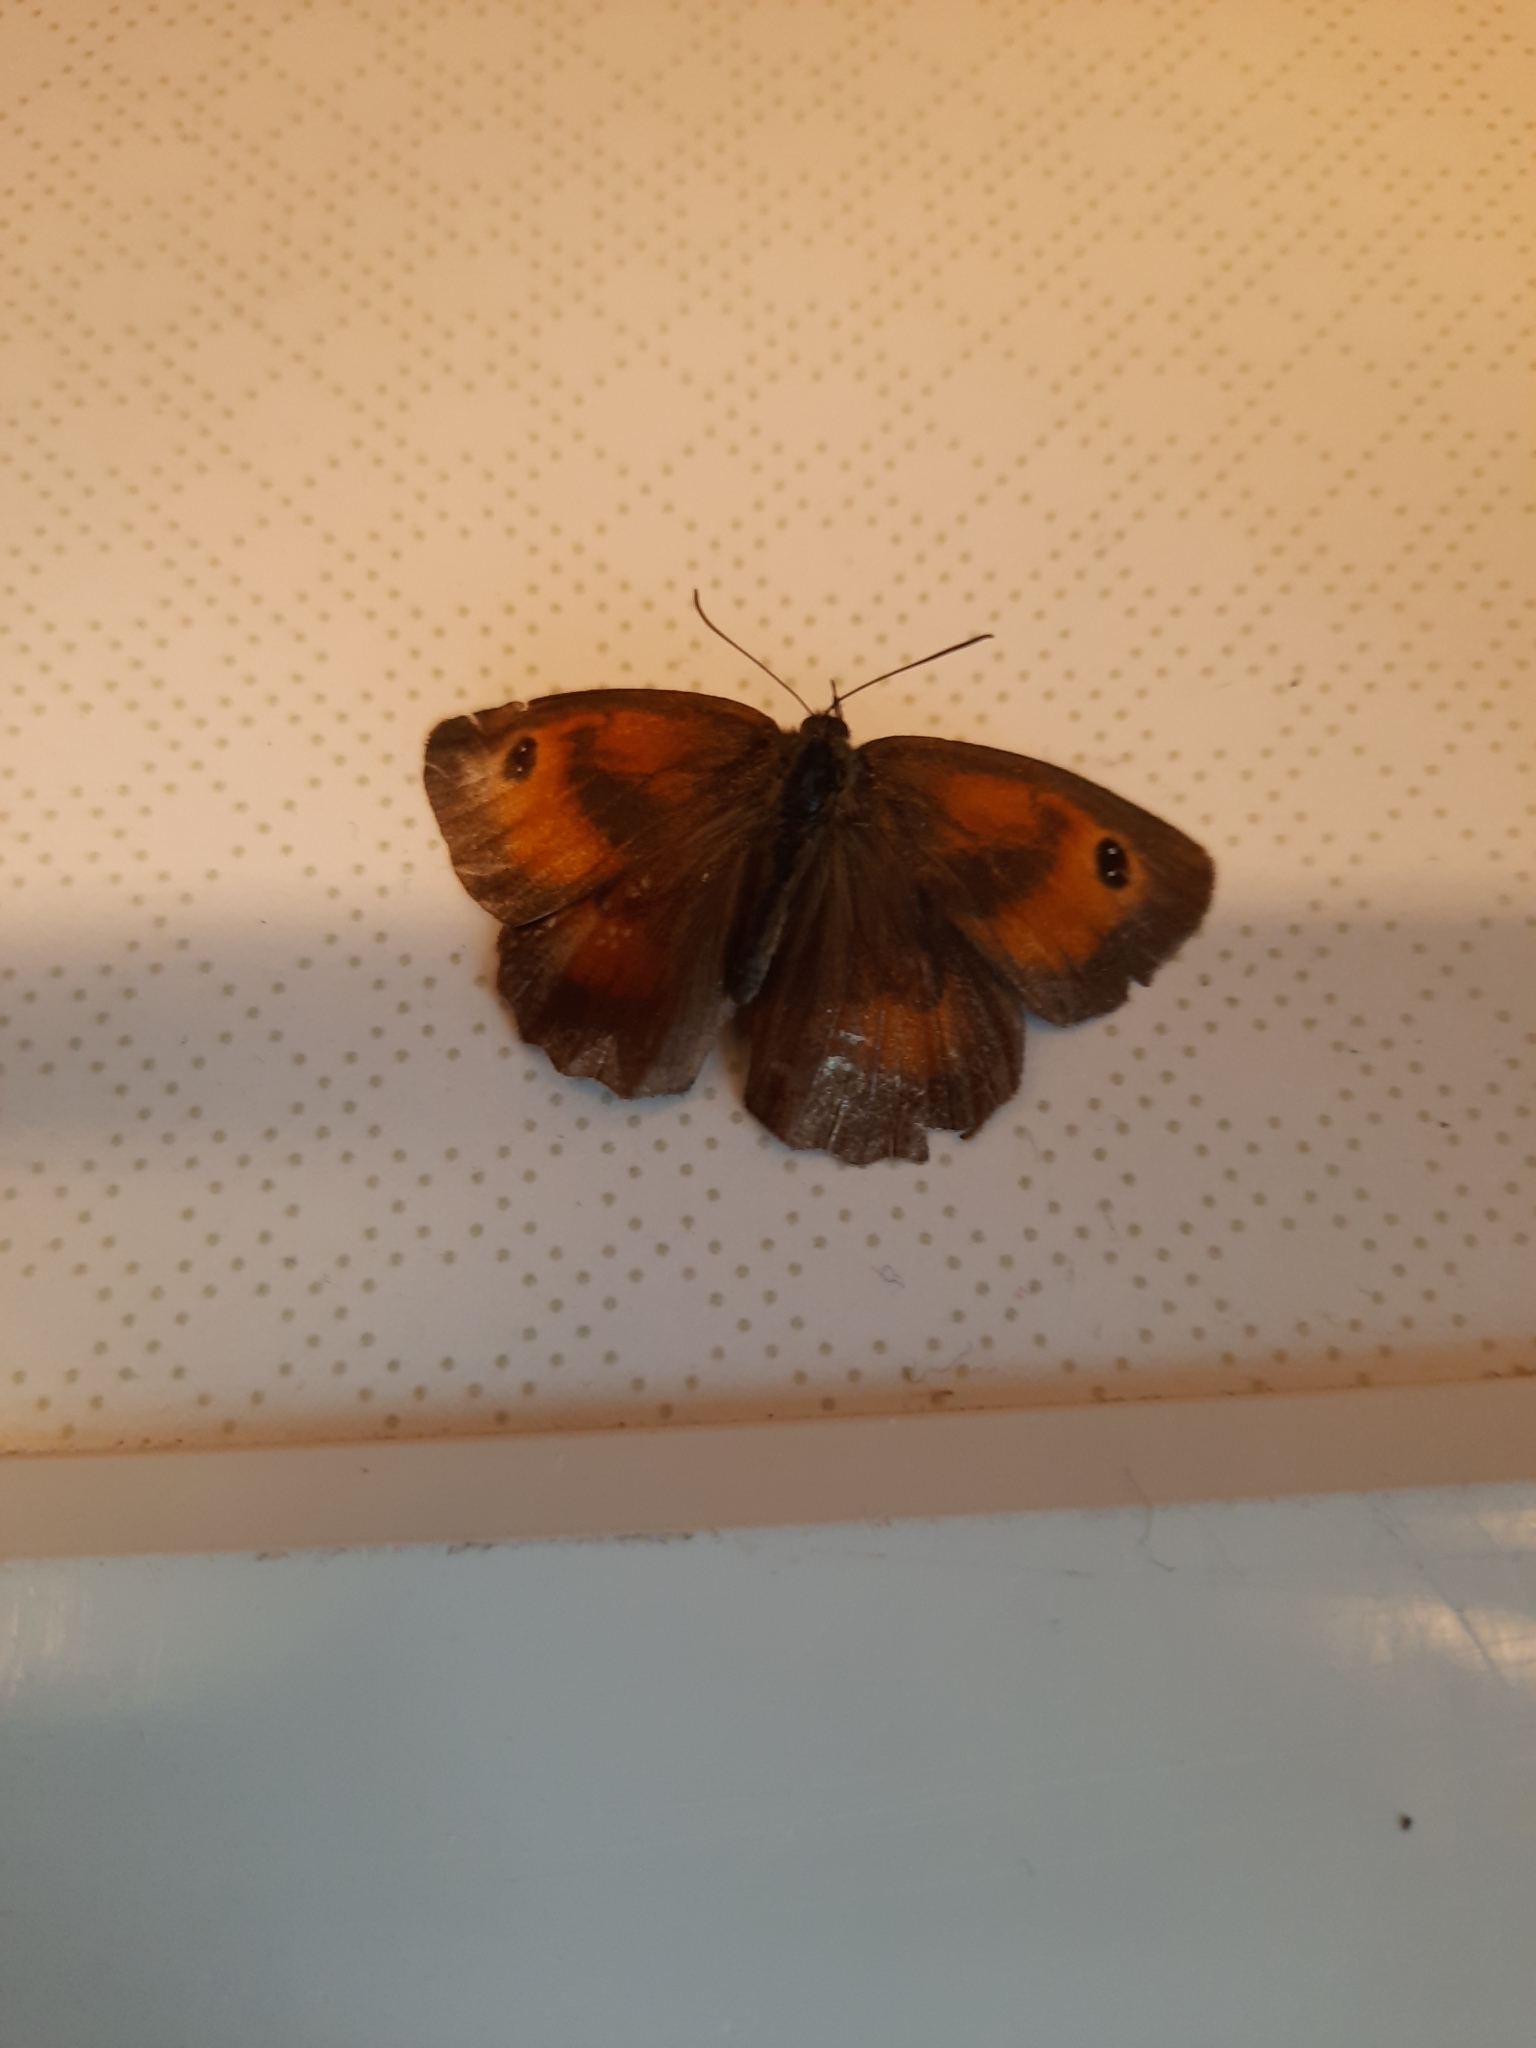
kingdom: Animalia
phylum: Arthropoda
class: Insecta
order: Lepidoptera
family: Nymphalidae
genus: Pyronia
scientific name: Pyronia tithonus
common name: Gatekeeper
